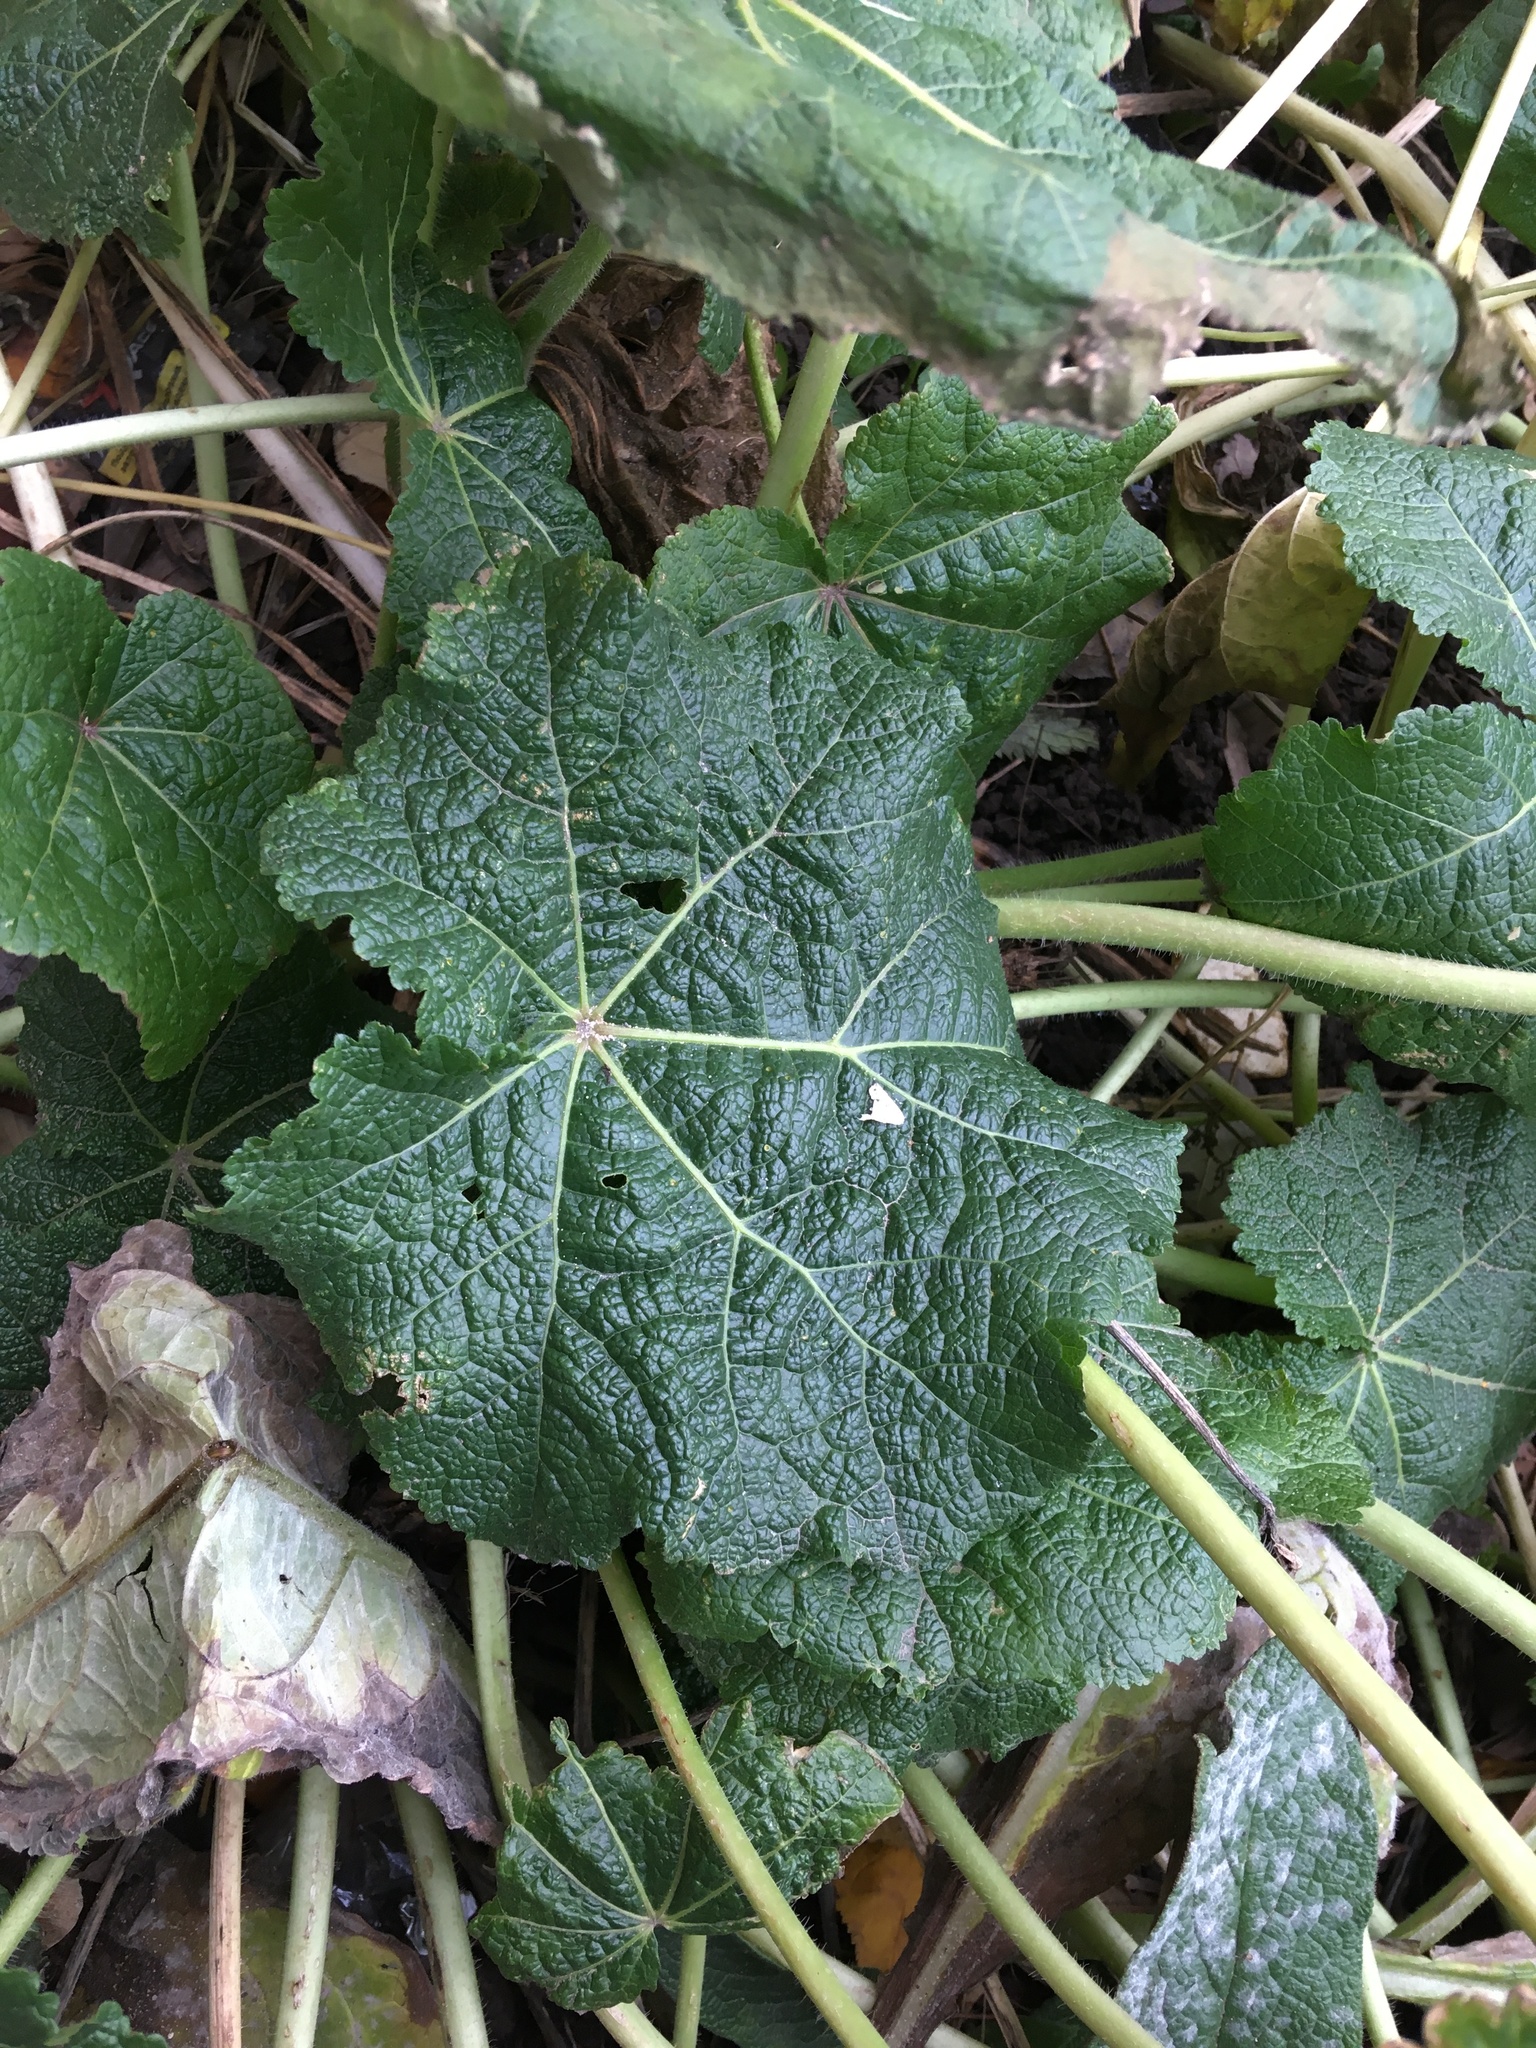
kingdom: Plantae
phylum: Tracheophyta
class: Magnoliopsida
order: Malvales
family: Malvaceae
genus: Alcea
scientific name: Alcea rosea
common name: Hollyhock
